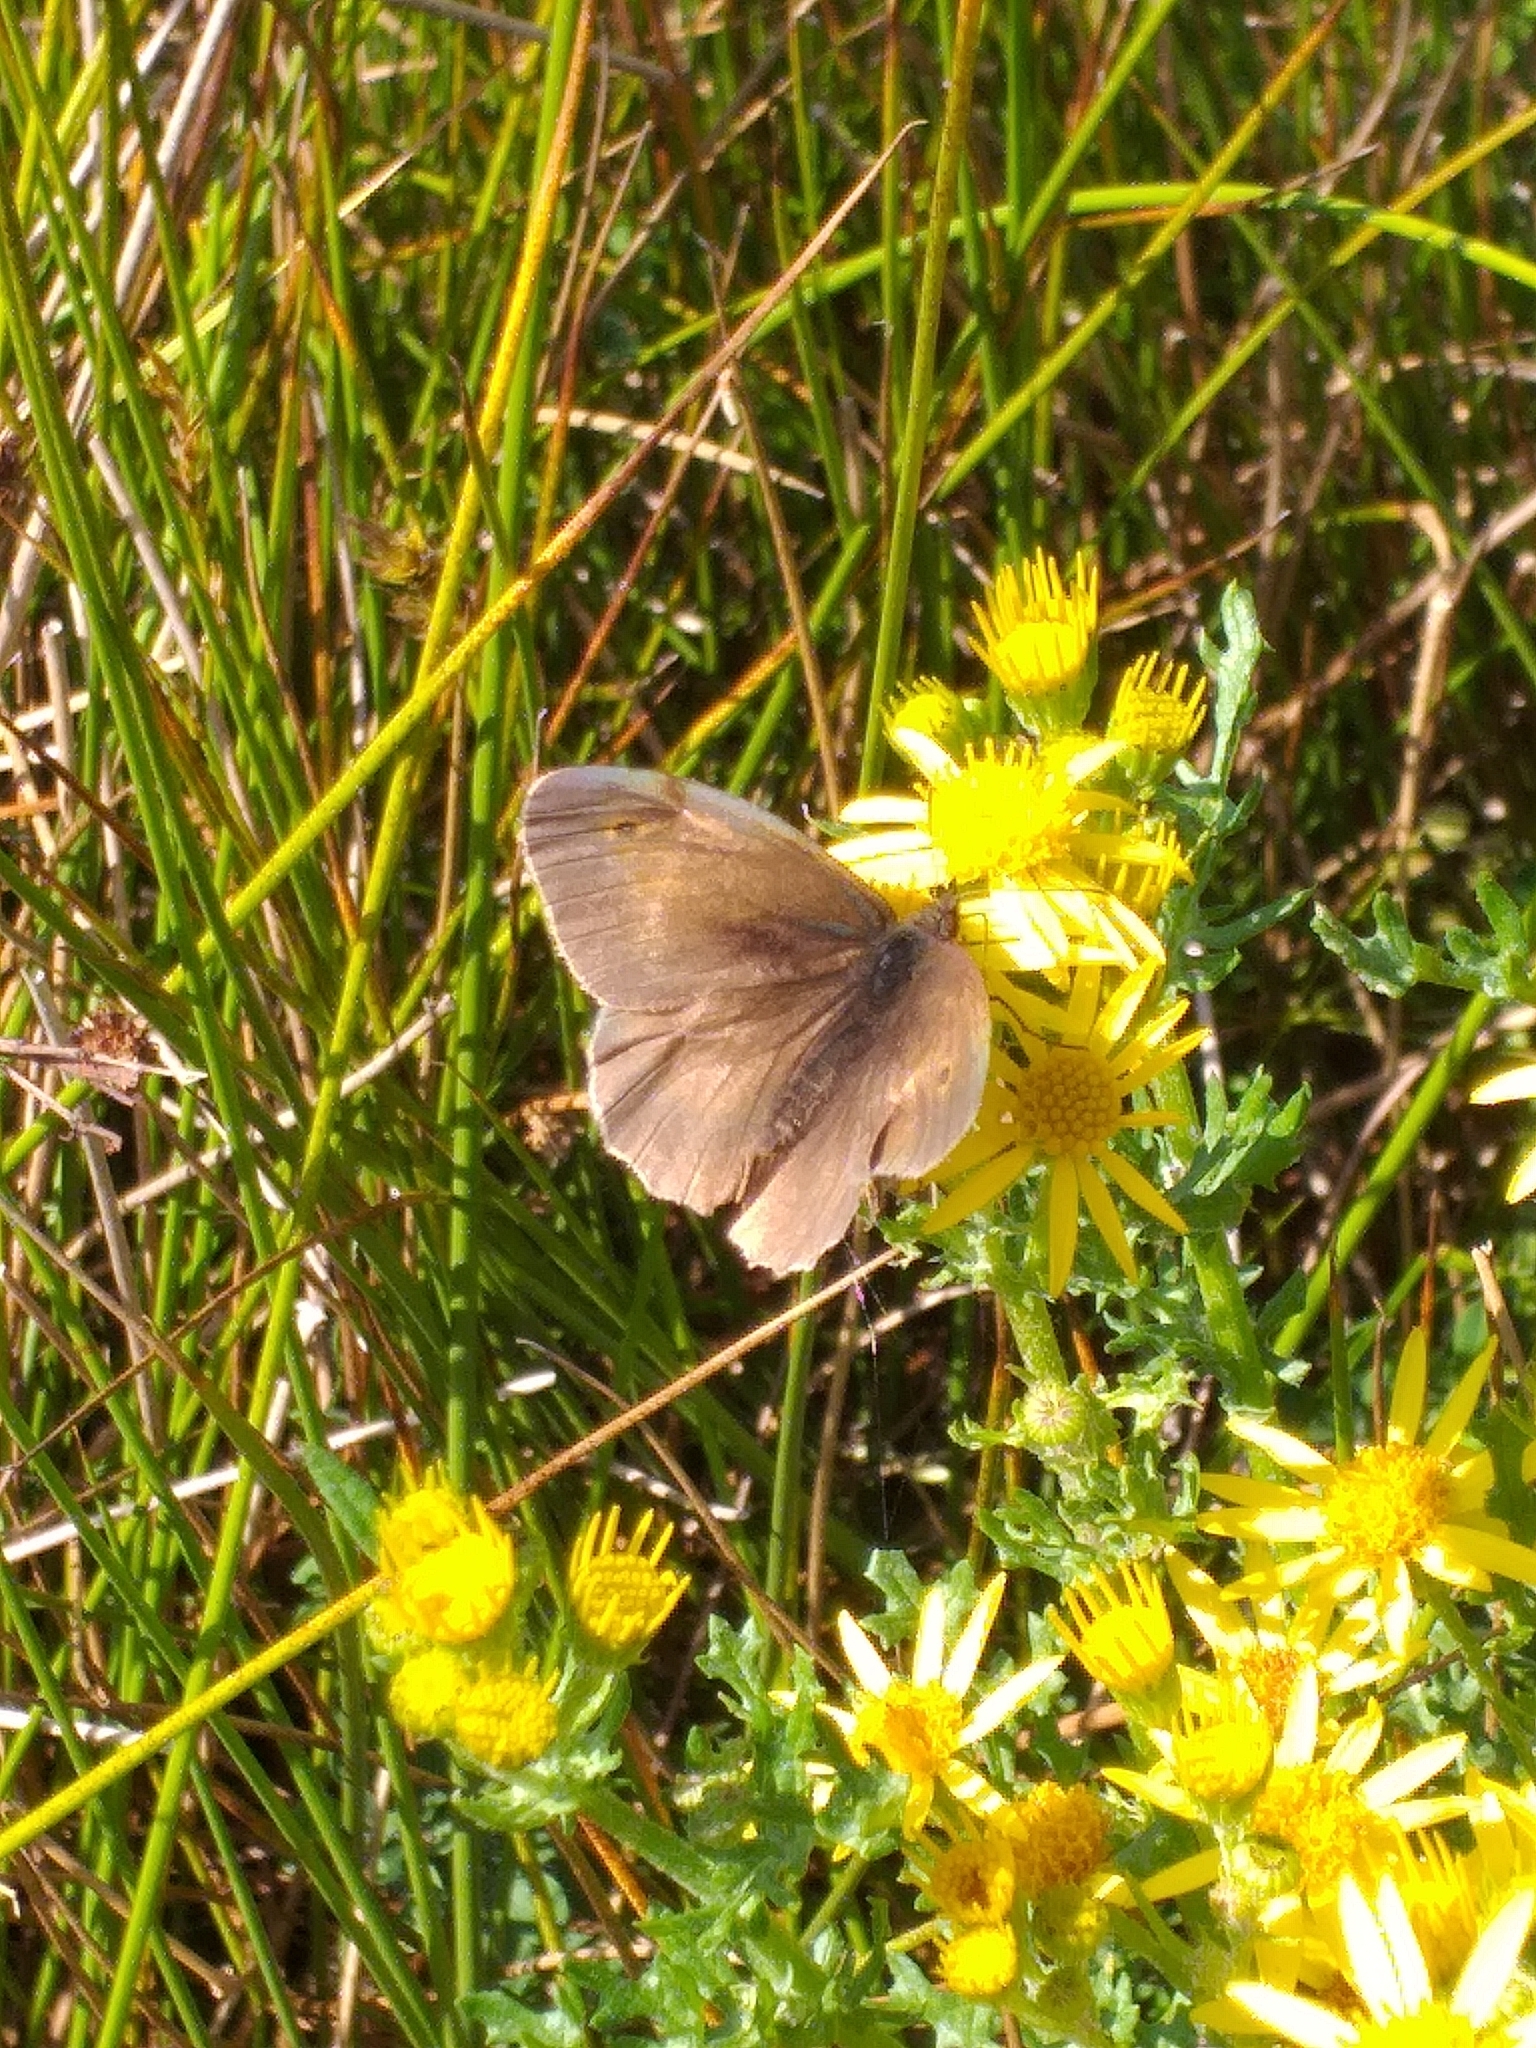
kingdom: Animalia
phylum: Arthropoda
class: Insecta
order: Lepidoptera
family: Nymphalidae
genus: Maniola
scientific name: Maniola jurtina
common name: Meadow brown
